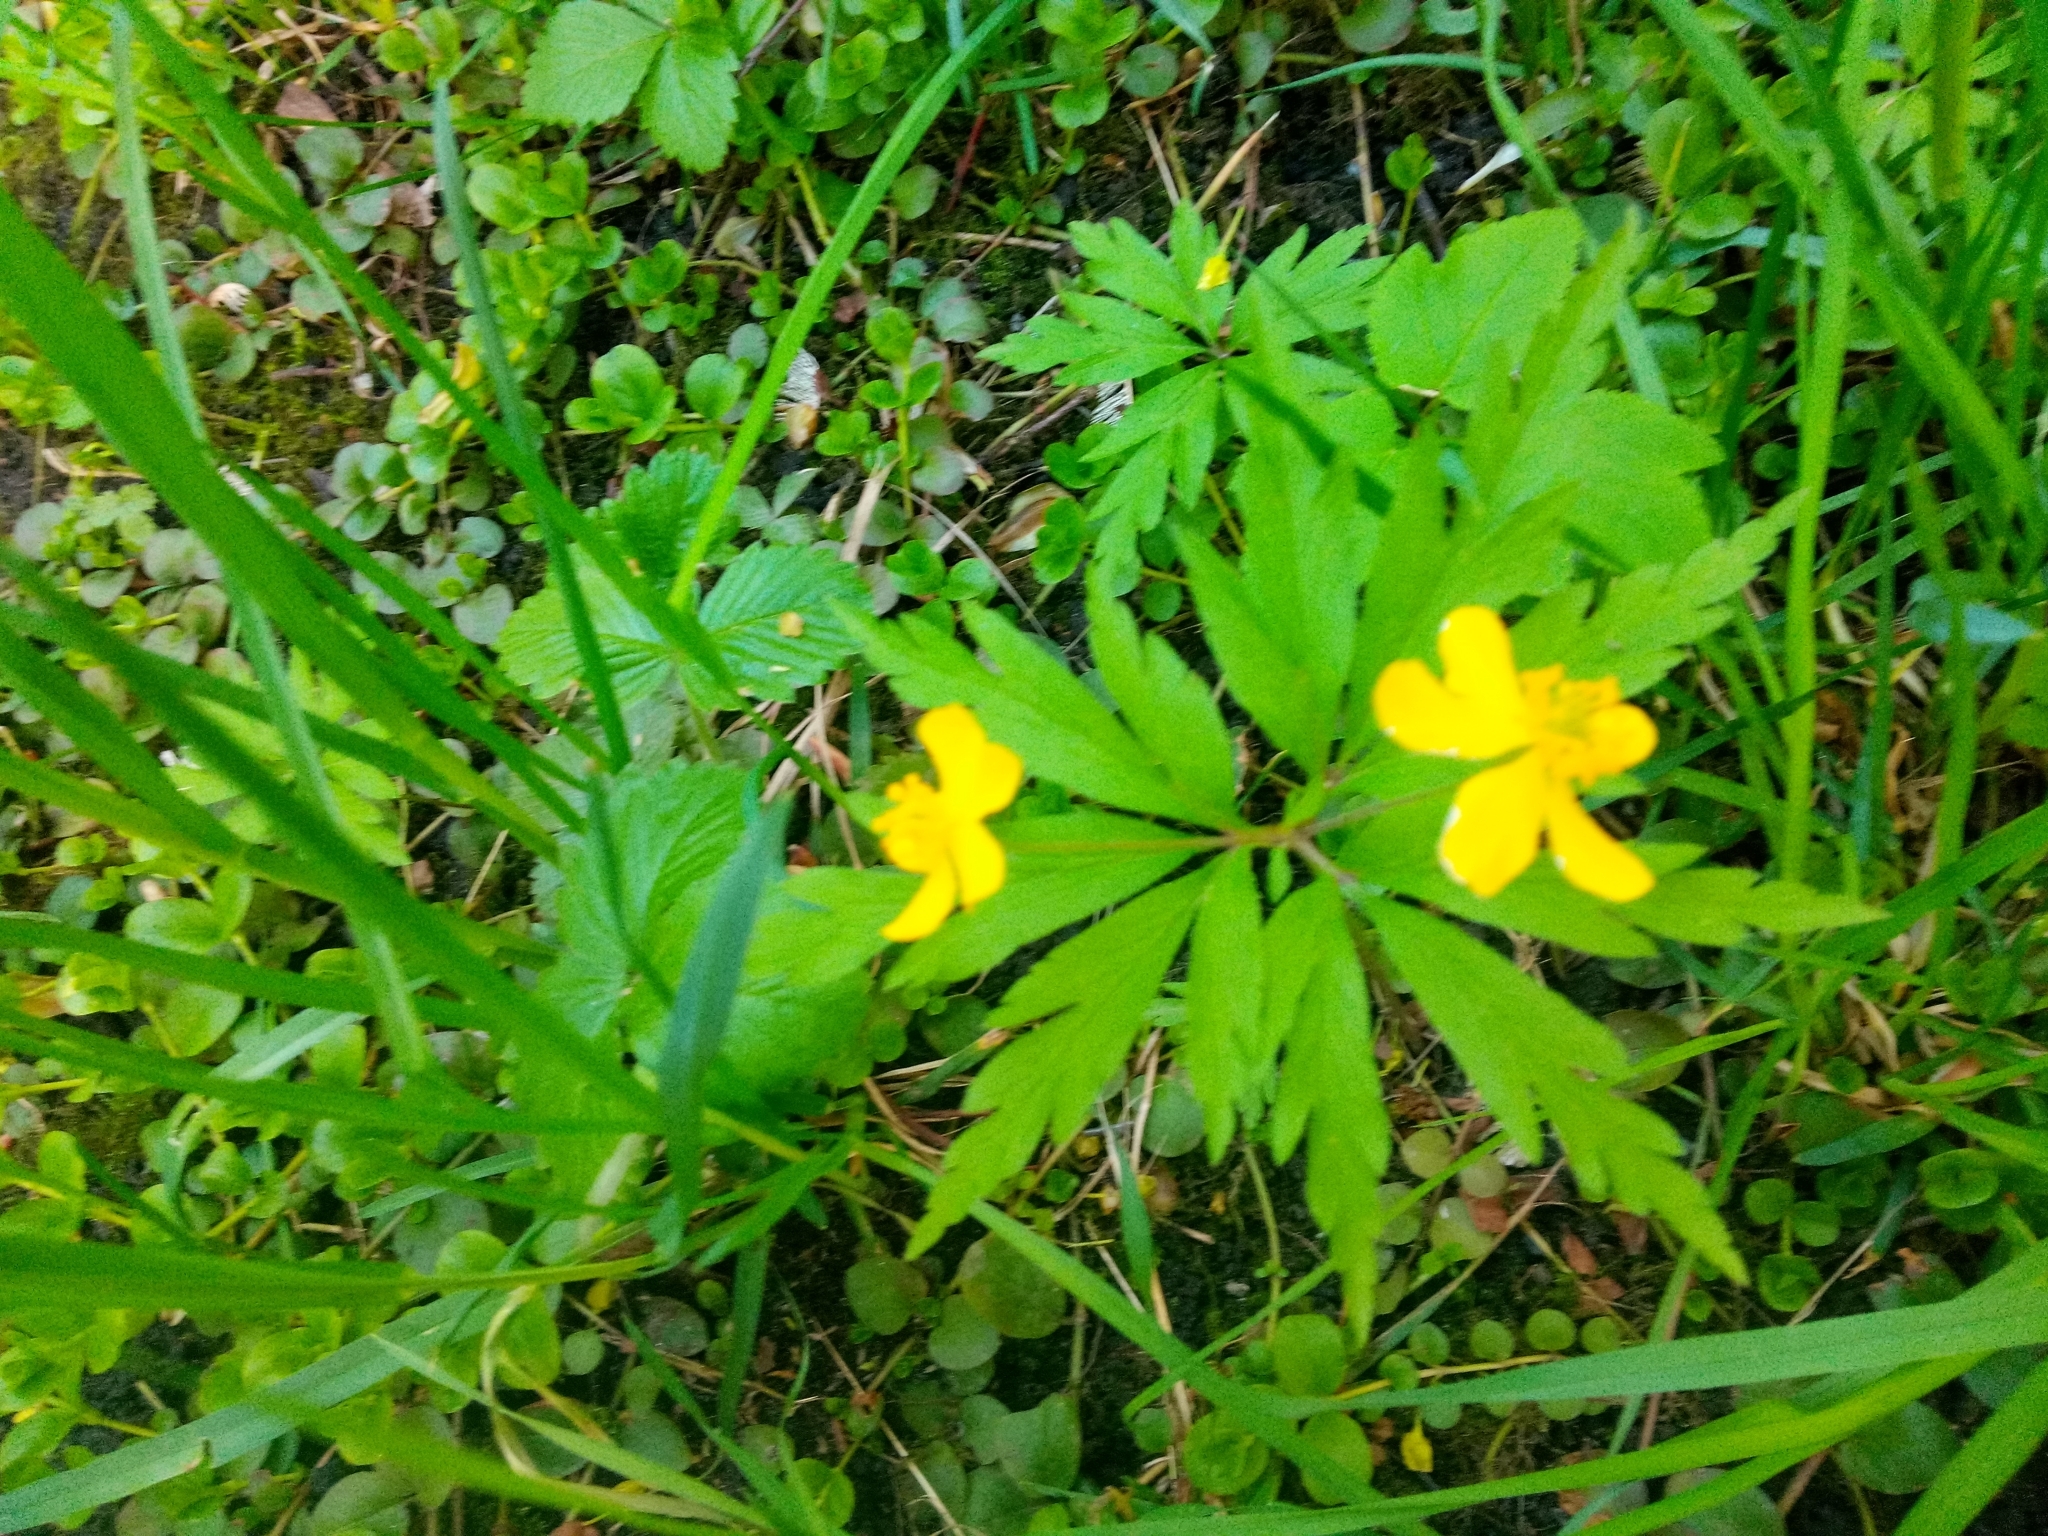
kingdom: Plantae
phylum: Tracheophyta
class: Magnoliopsida
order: Ranunculales
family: Ranunculaceae
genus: Anemone
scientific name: Anemone ranunculoides
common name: Yellow anemone
